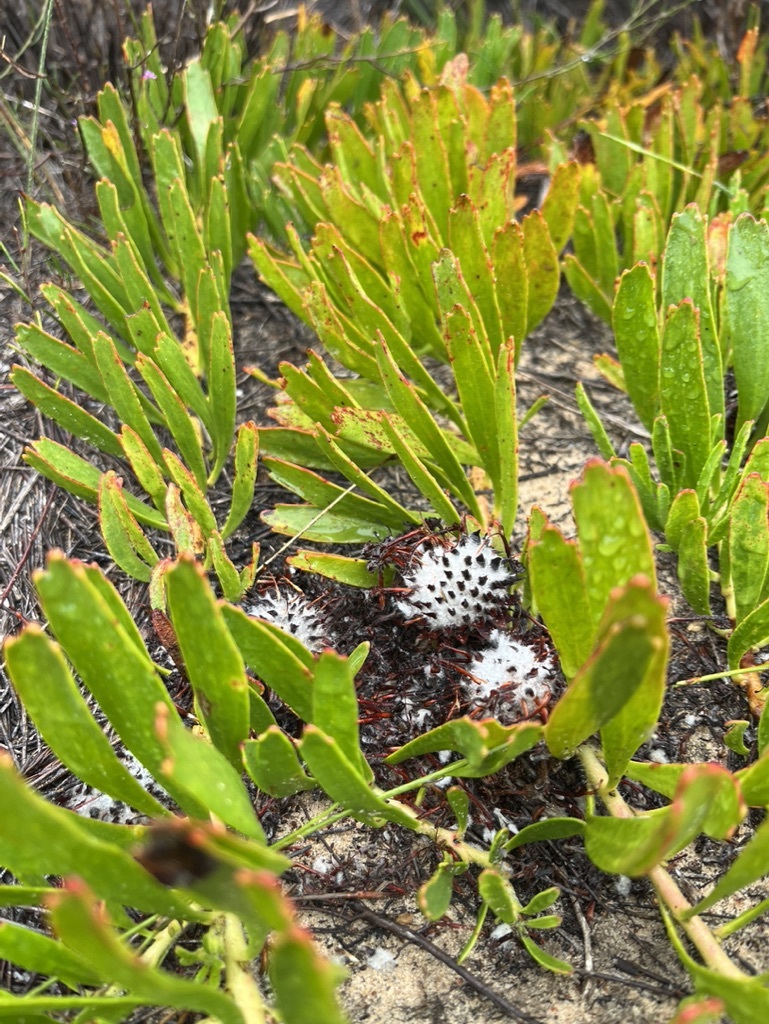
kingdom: Plantae
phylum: Tracheophyta
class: Magnoliopsida
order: Proteales
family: Proteaceae
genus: Leucospermum
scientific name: Leucospermum hypophyllocarpodendron
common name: Snakestem pincushion
